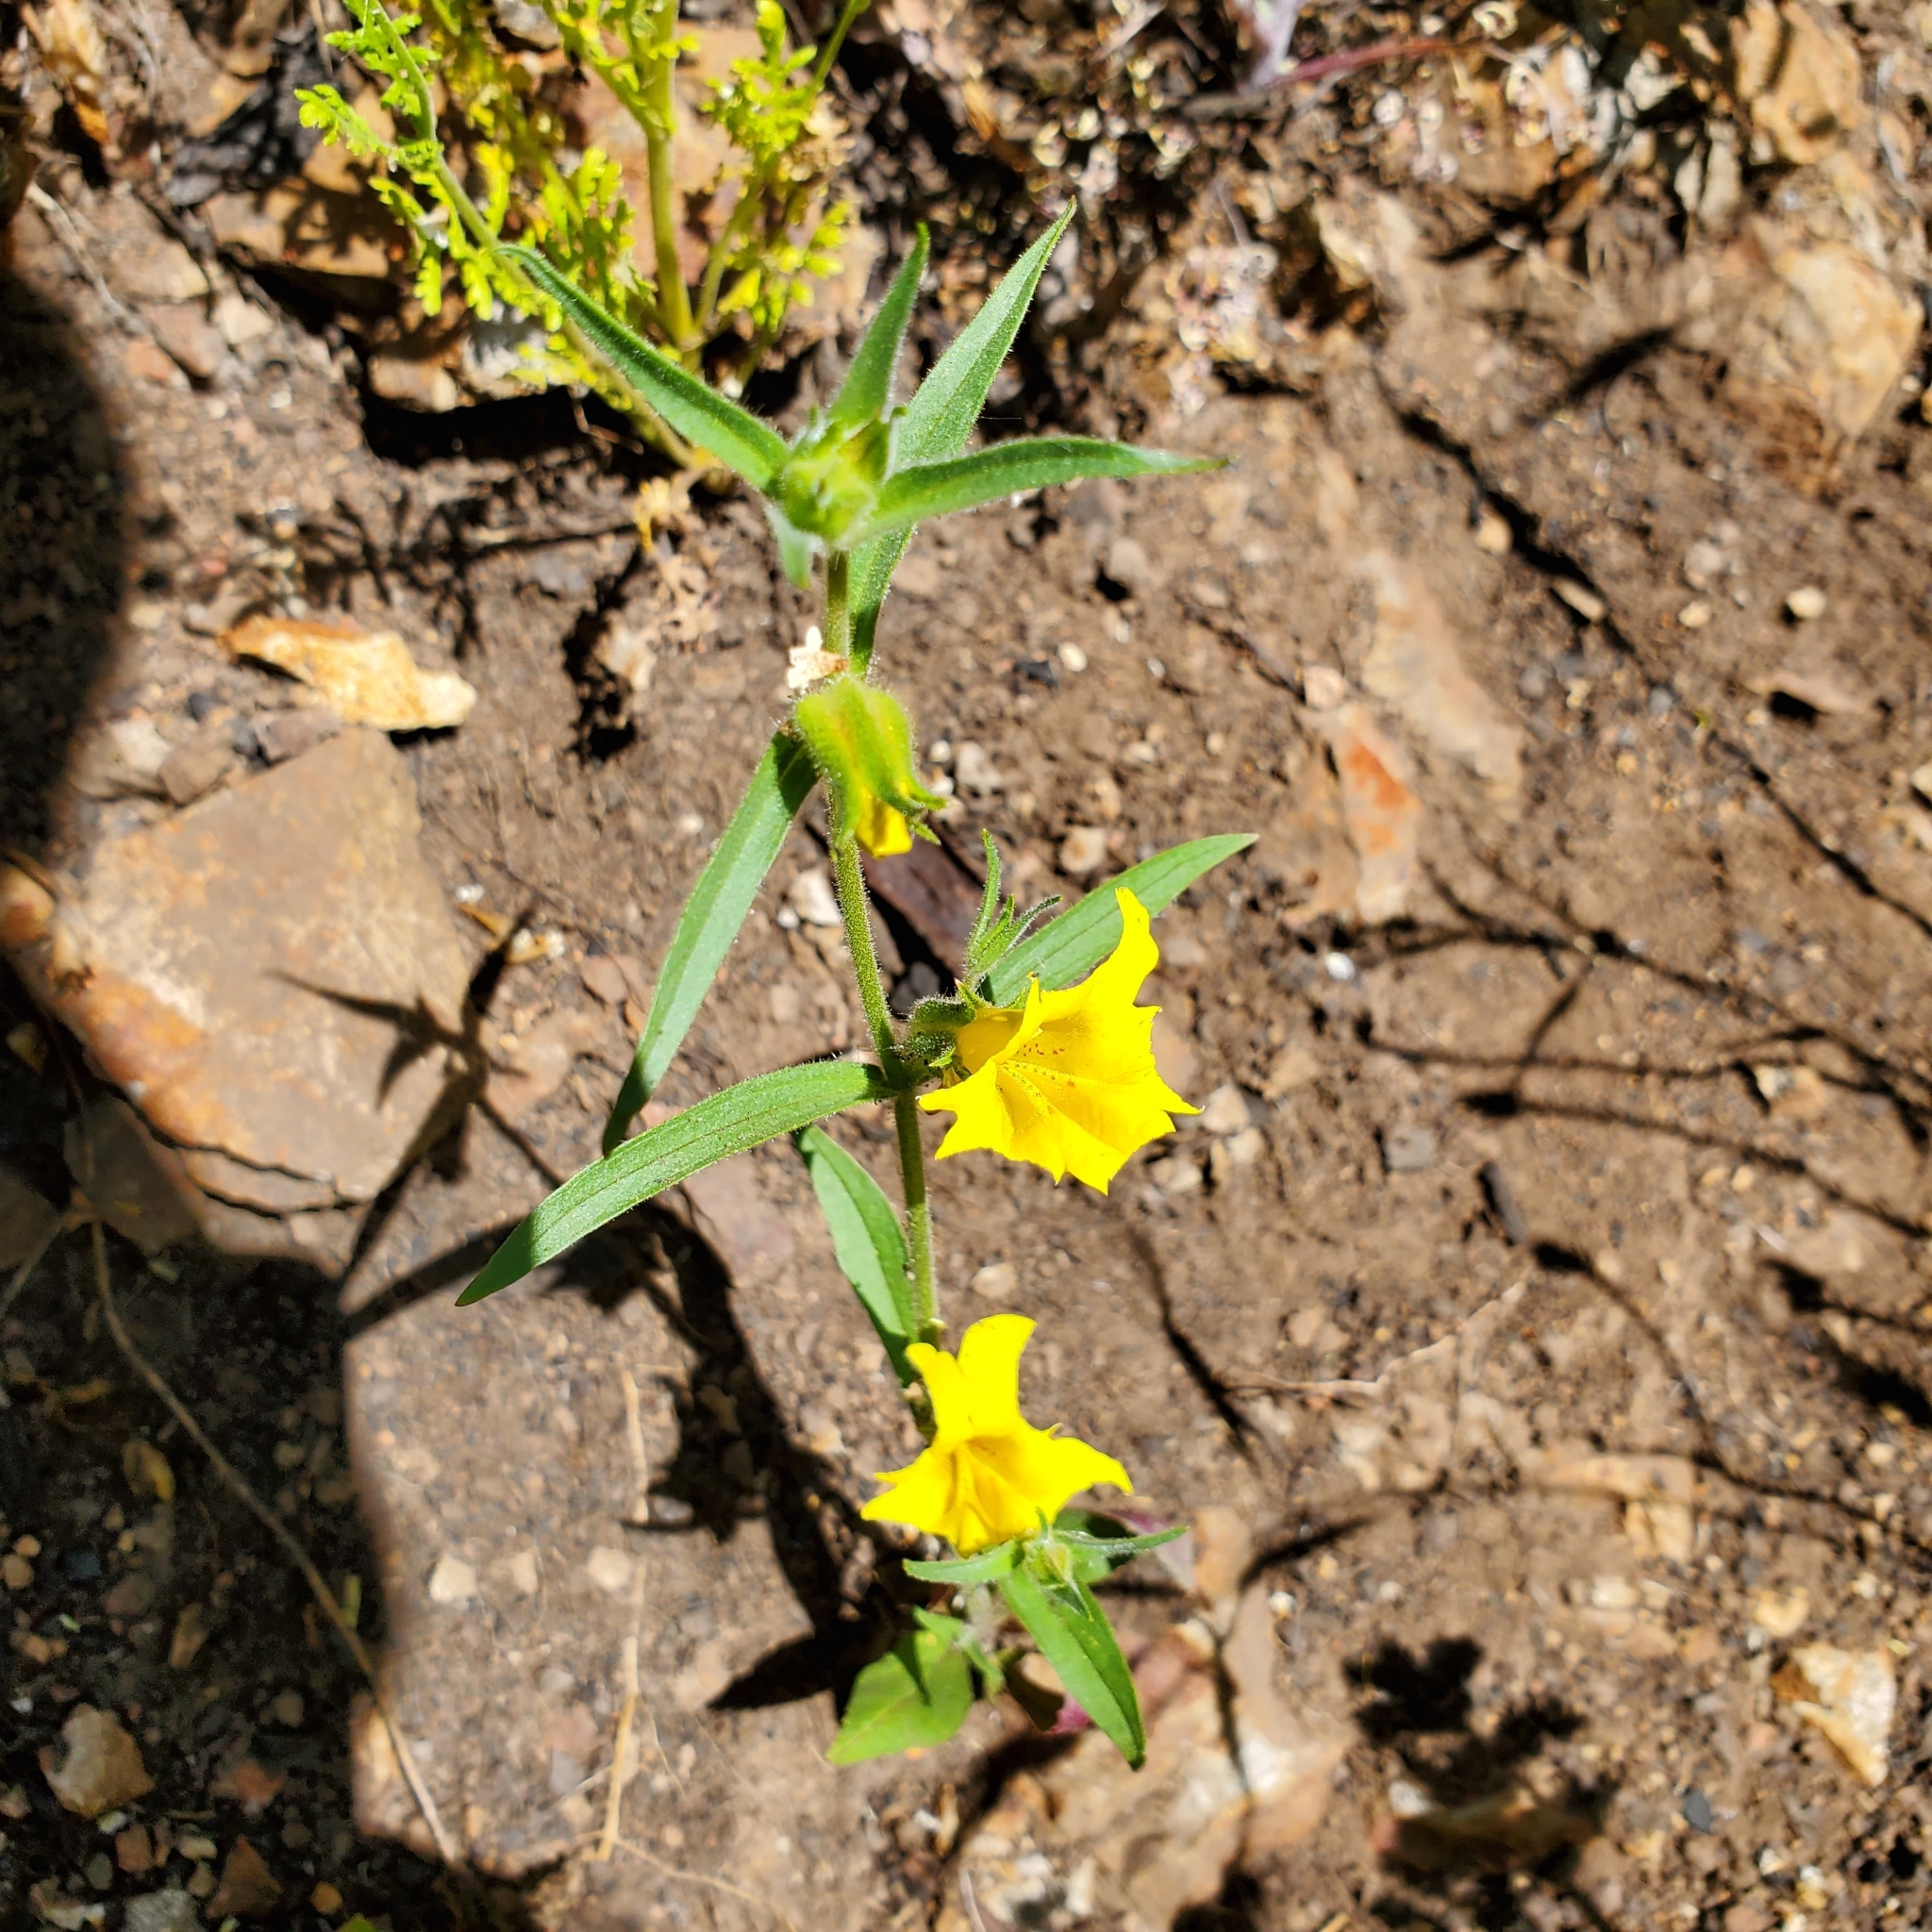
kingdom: Plantae
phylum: Tracheophyta
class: Magnoliopsida
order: Lamiales
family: Phrymaceae
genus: Diplacus
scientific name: Diplacus brevipes
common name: Wide-throat yellow monkey-flower
